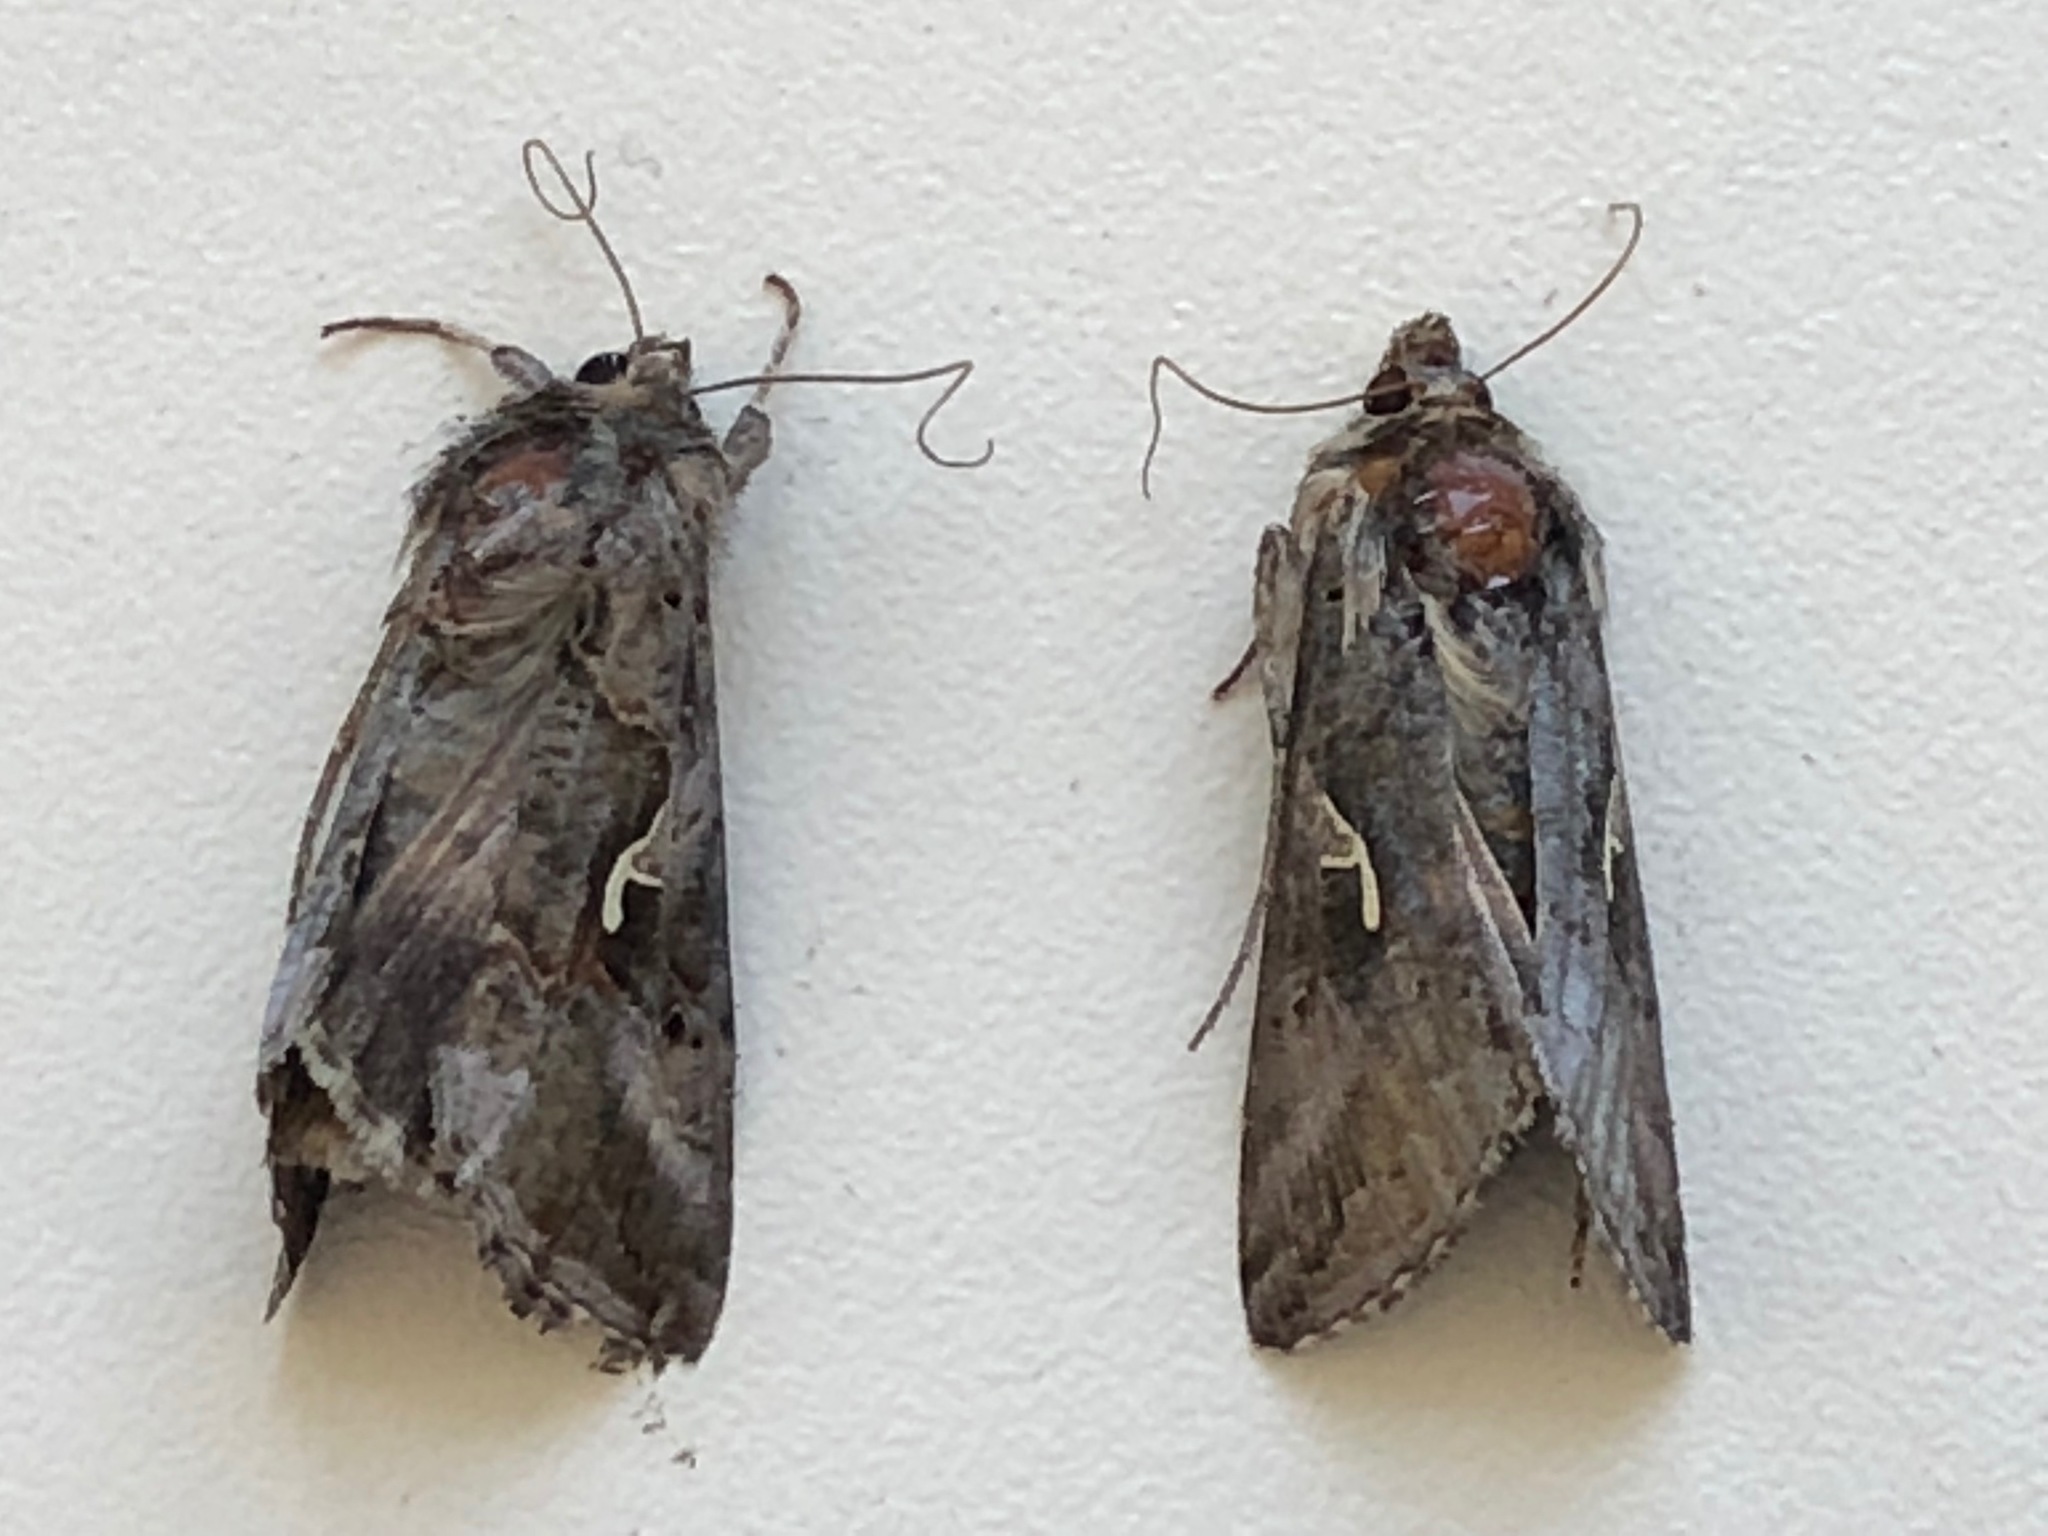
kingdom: Animalia
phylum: Arthropoda
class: Insecta
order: Lepidoptera
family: Noctuidae
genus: Autographa
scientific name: Autographa gamma
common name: Silver y
